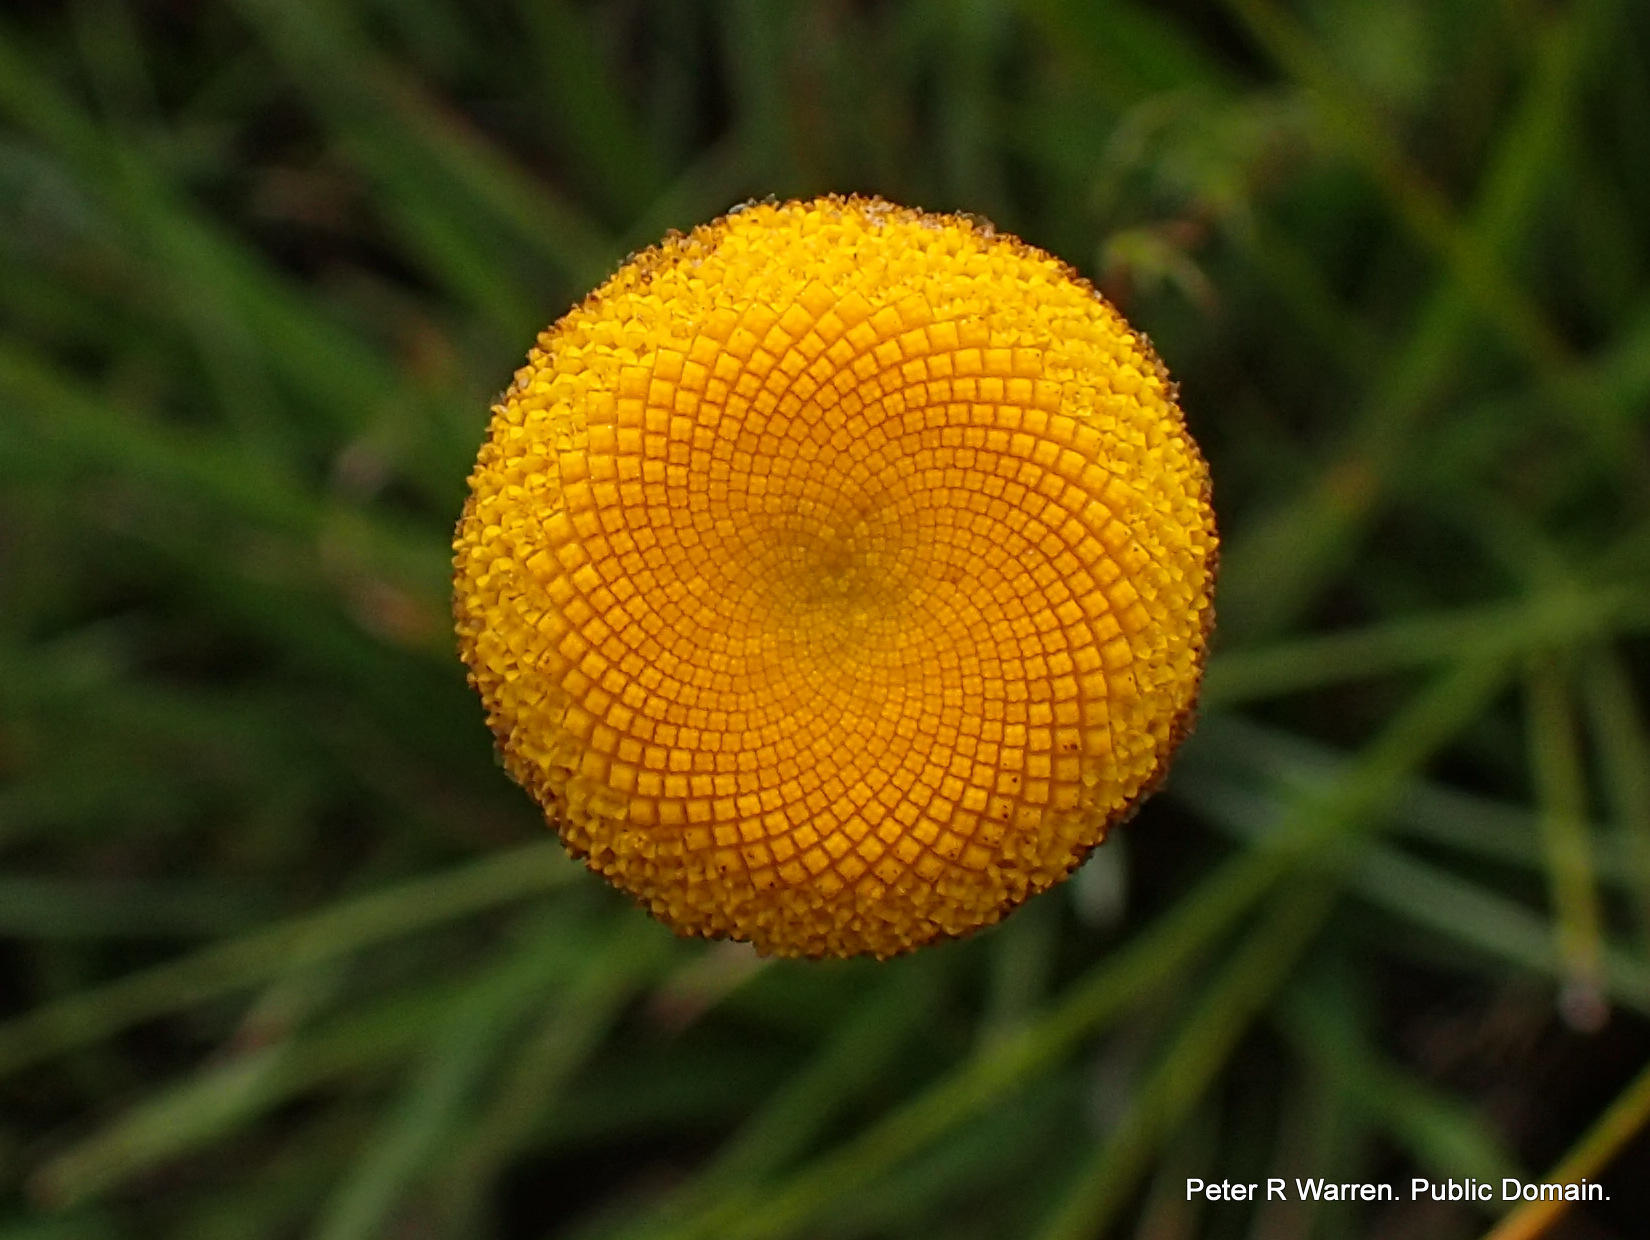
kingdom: Plantae
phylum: Tracheophyta
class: Magnoliopsida
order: Asterales
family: Asteraceae
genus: Cotula
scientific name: Cotula hispida
